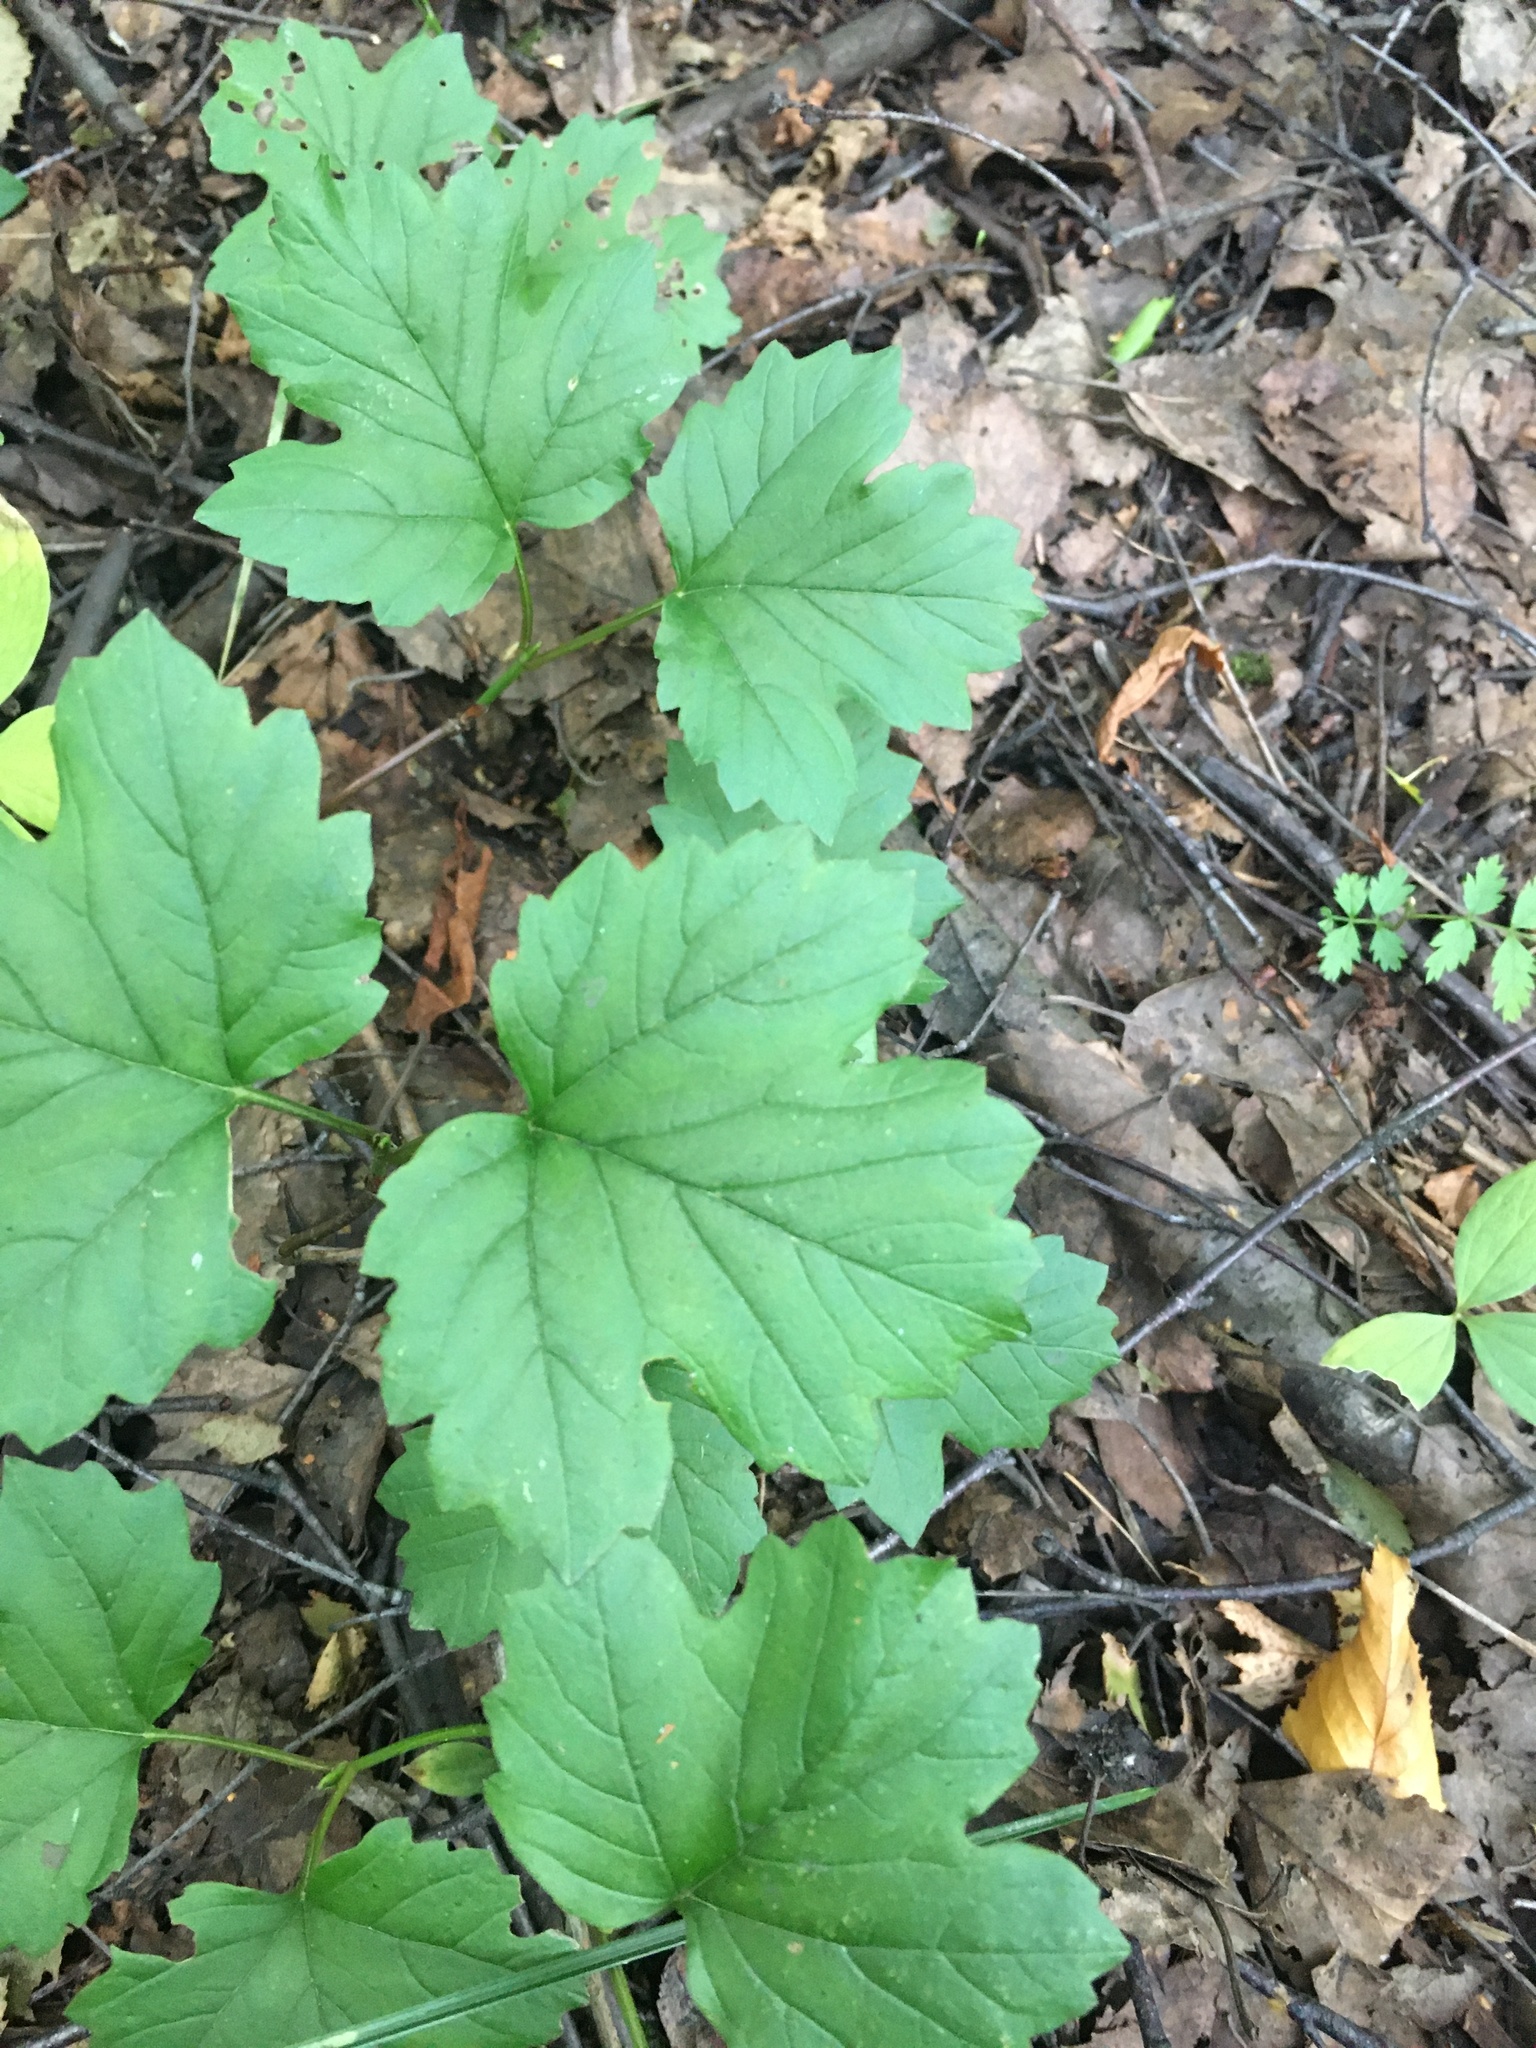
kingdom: Plantae
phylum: Tracheophyta
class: Magnoliopsida
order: Dipsacales
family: Viburnaceae
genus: Viburnum
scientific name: Viburnum opulus
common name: Guelder-rose
